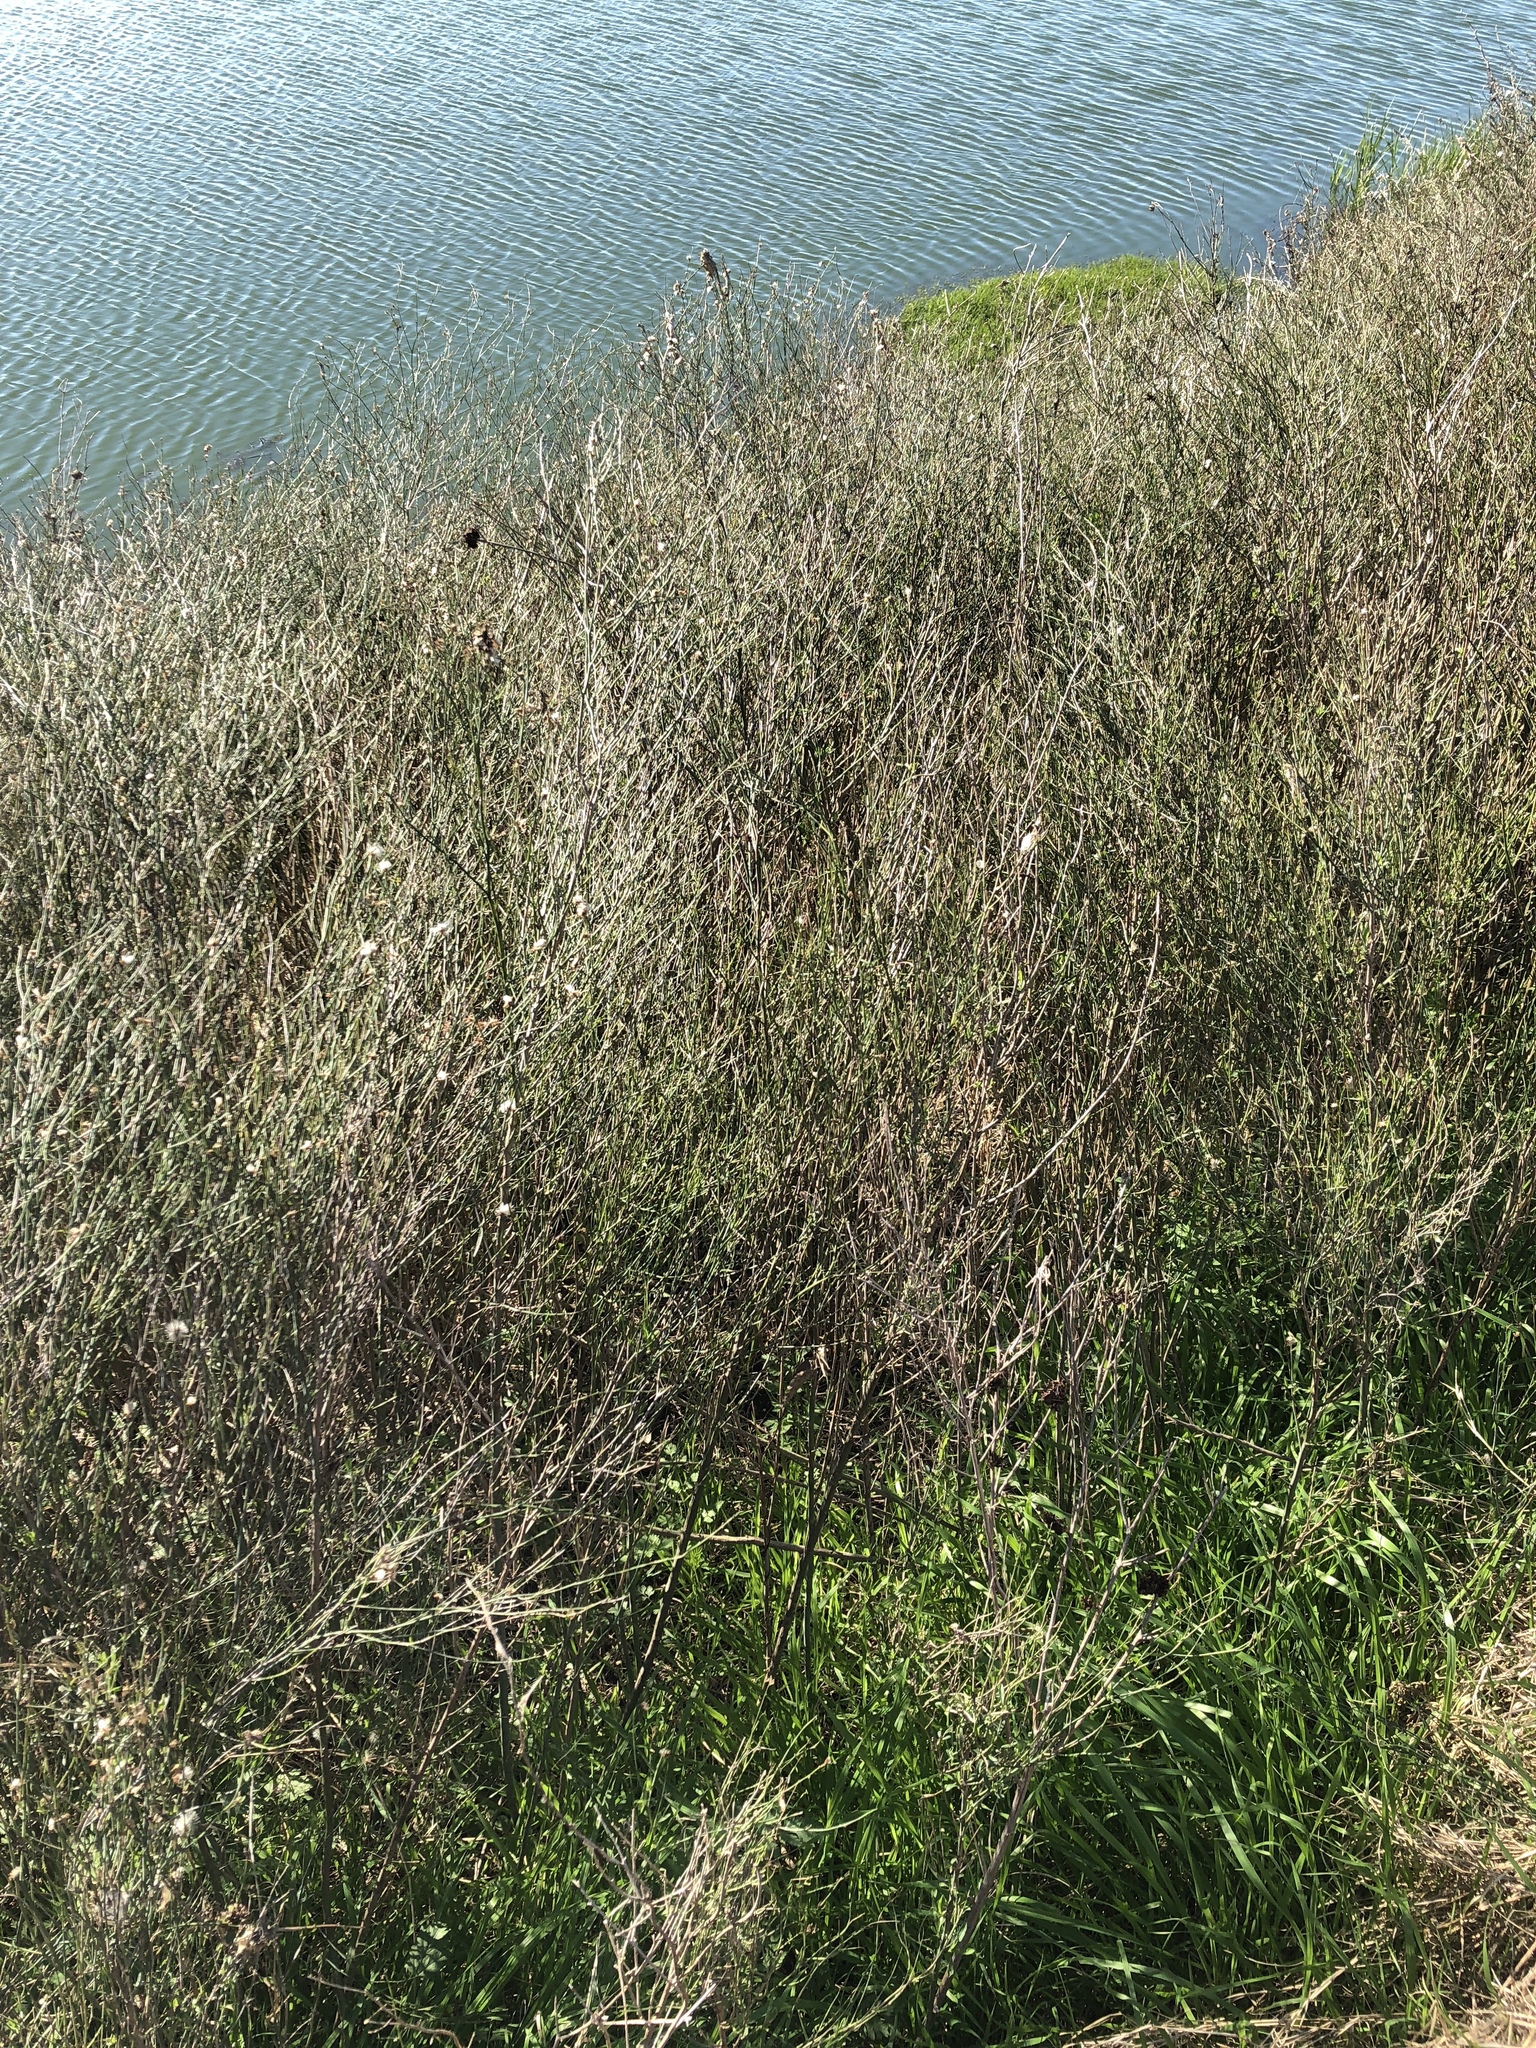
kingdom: Plantae
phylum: Tracheophyta
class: Magnoliopsida
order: Asterales
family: Asteraceae
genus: Chloracantha
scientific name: Chloracantha spinosa
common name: Mexican devilweed
